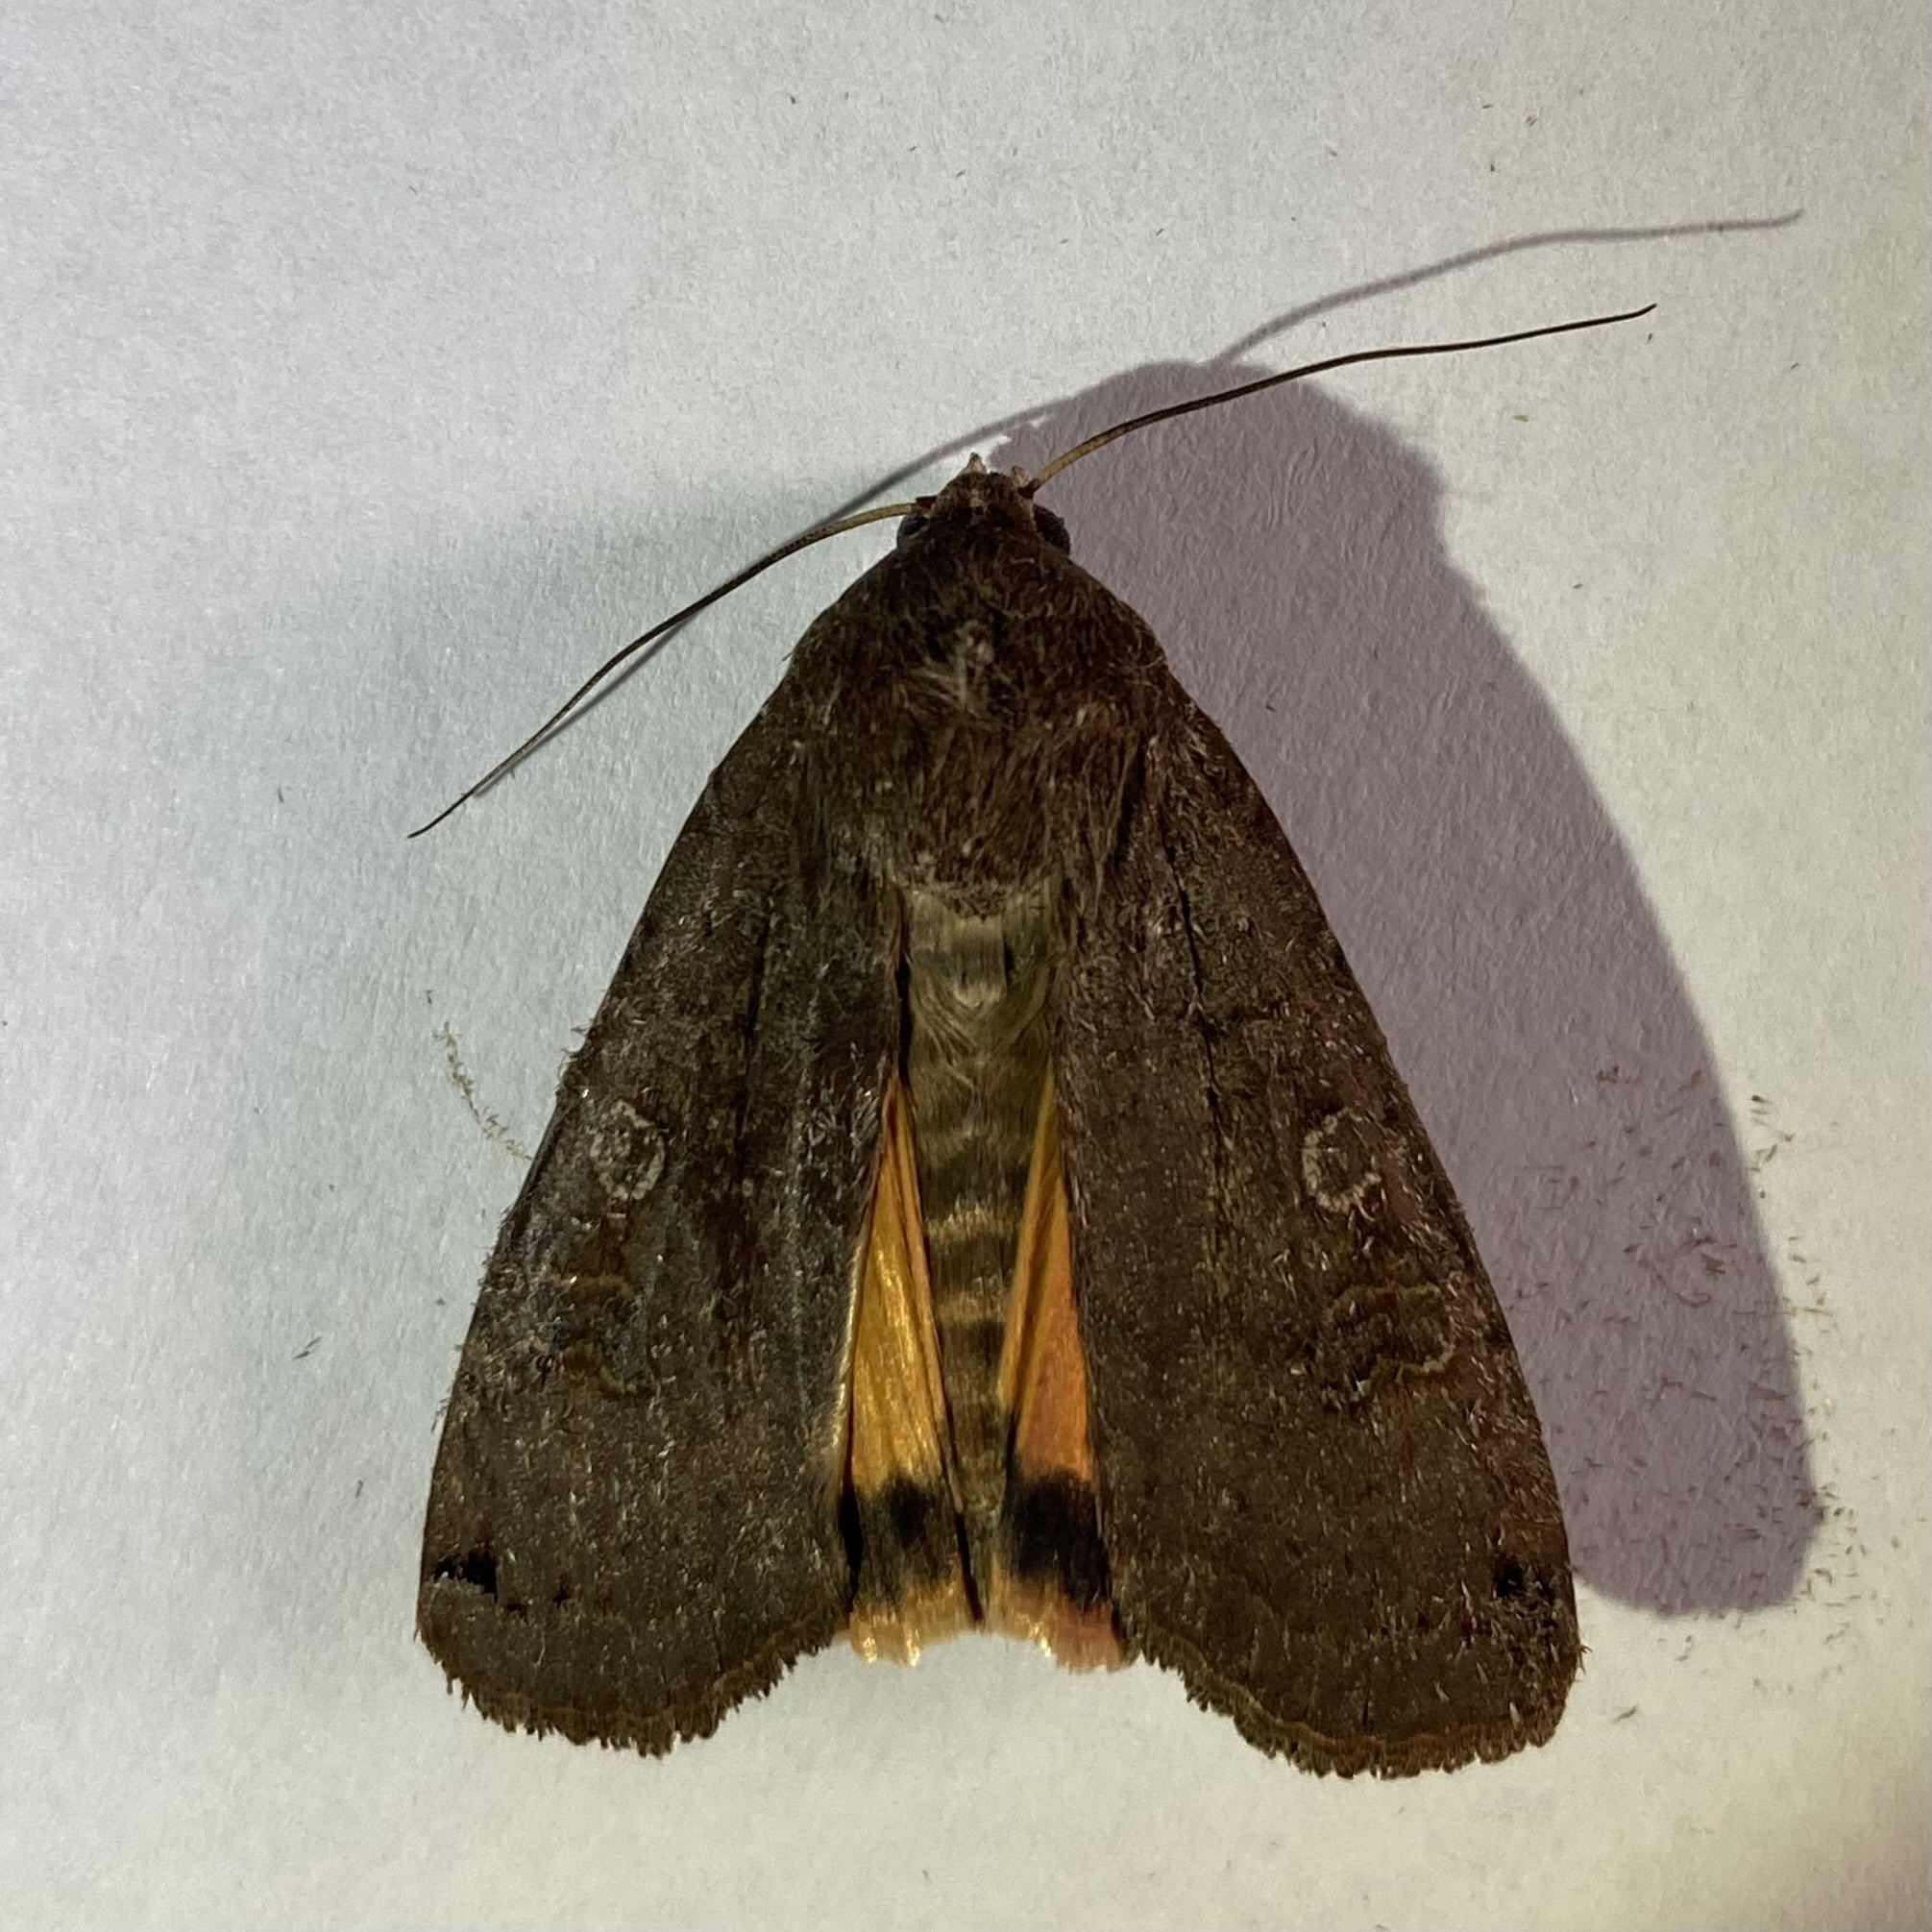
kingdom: Animalia
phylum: Arthropoda
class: Insecta
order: Lepidoptera
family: Noctuidae
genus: Noctua
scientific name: Noctua pronuba
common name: Large yellow underwing
